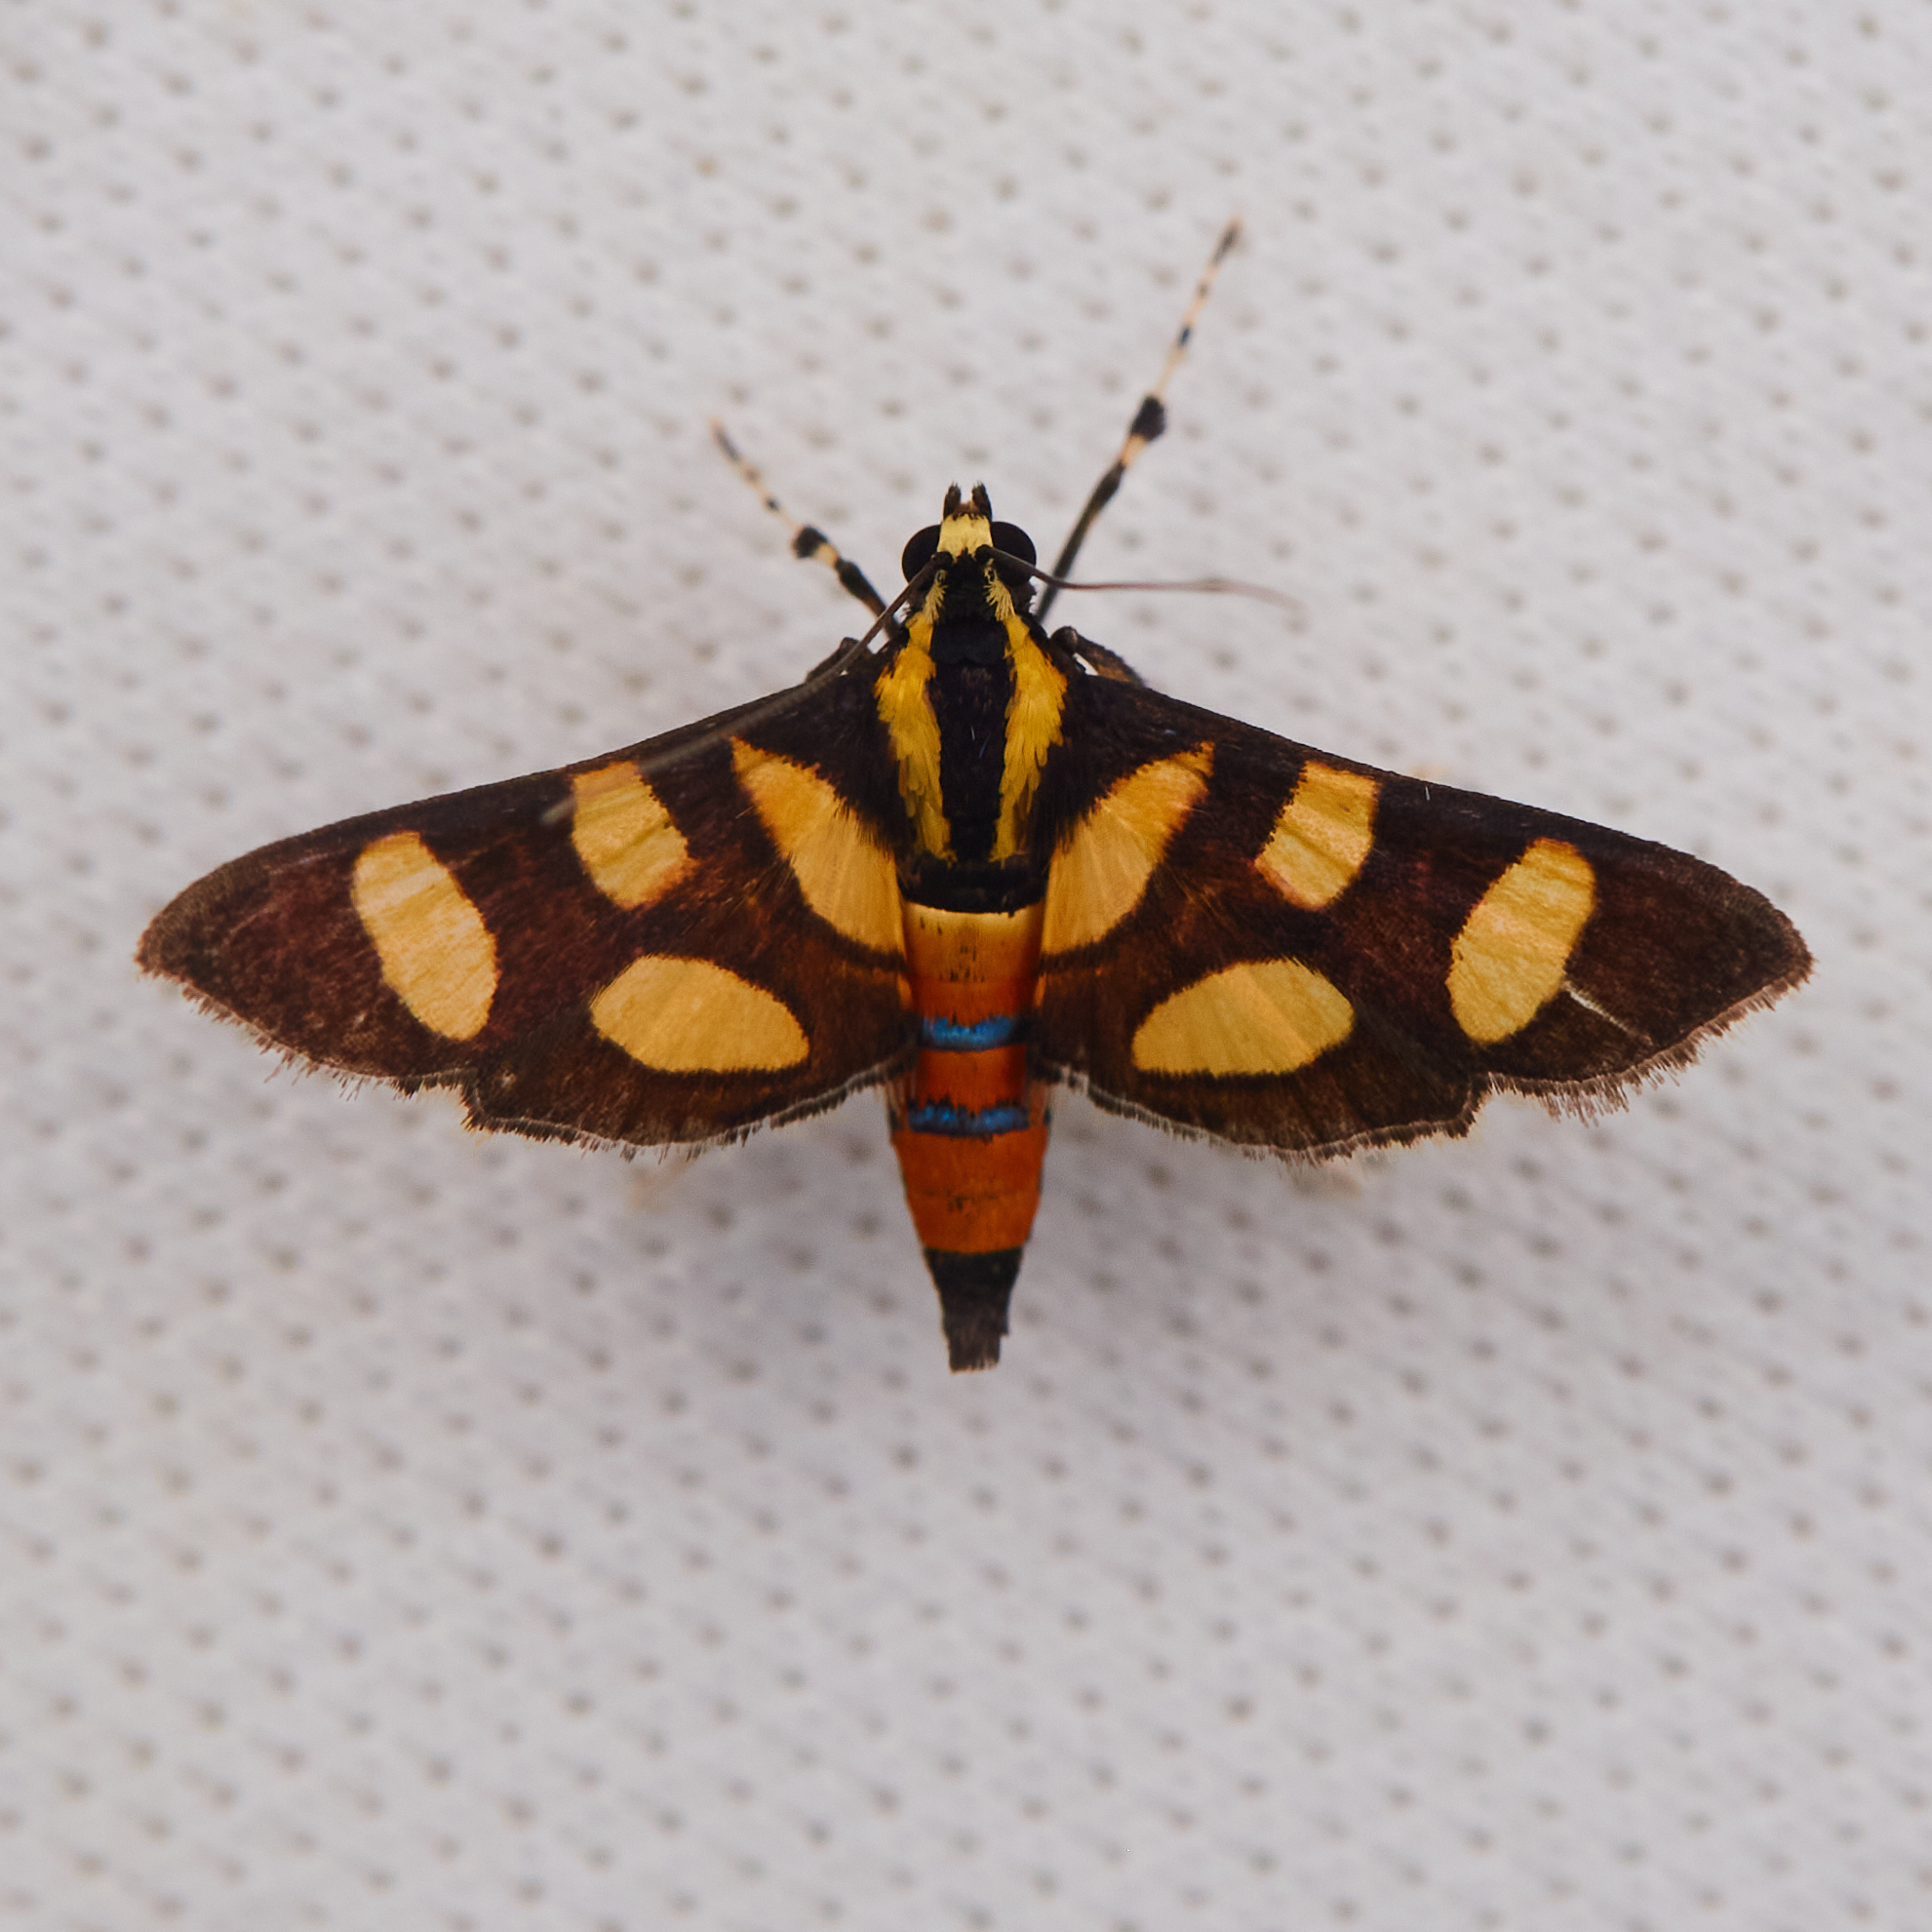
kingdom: Animalia
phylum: Arthropoda
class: Insecta
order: Lepidoptera
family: Crambidae
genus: Syngamia
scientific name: Syngamia florella
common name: Orange-spotted flower moth
